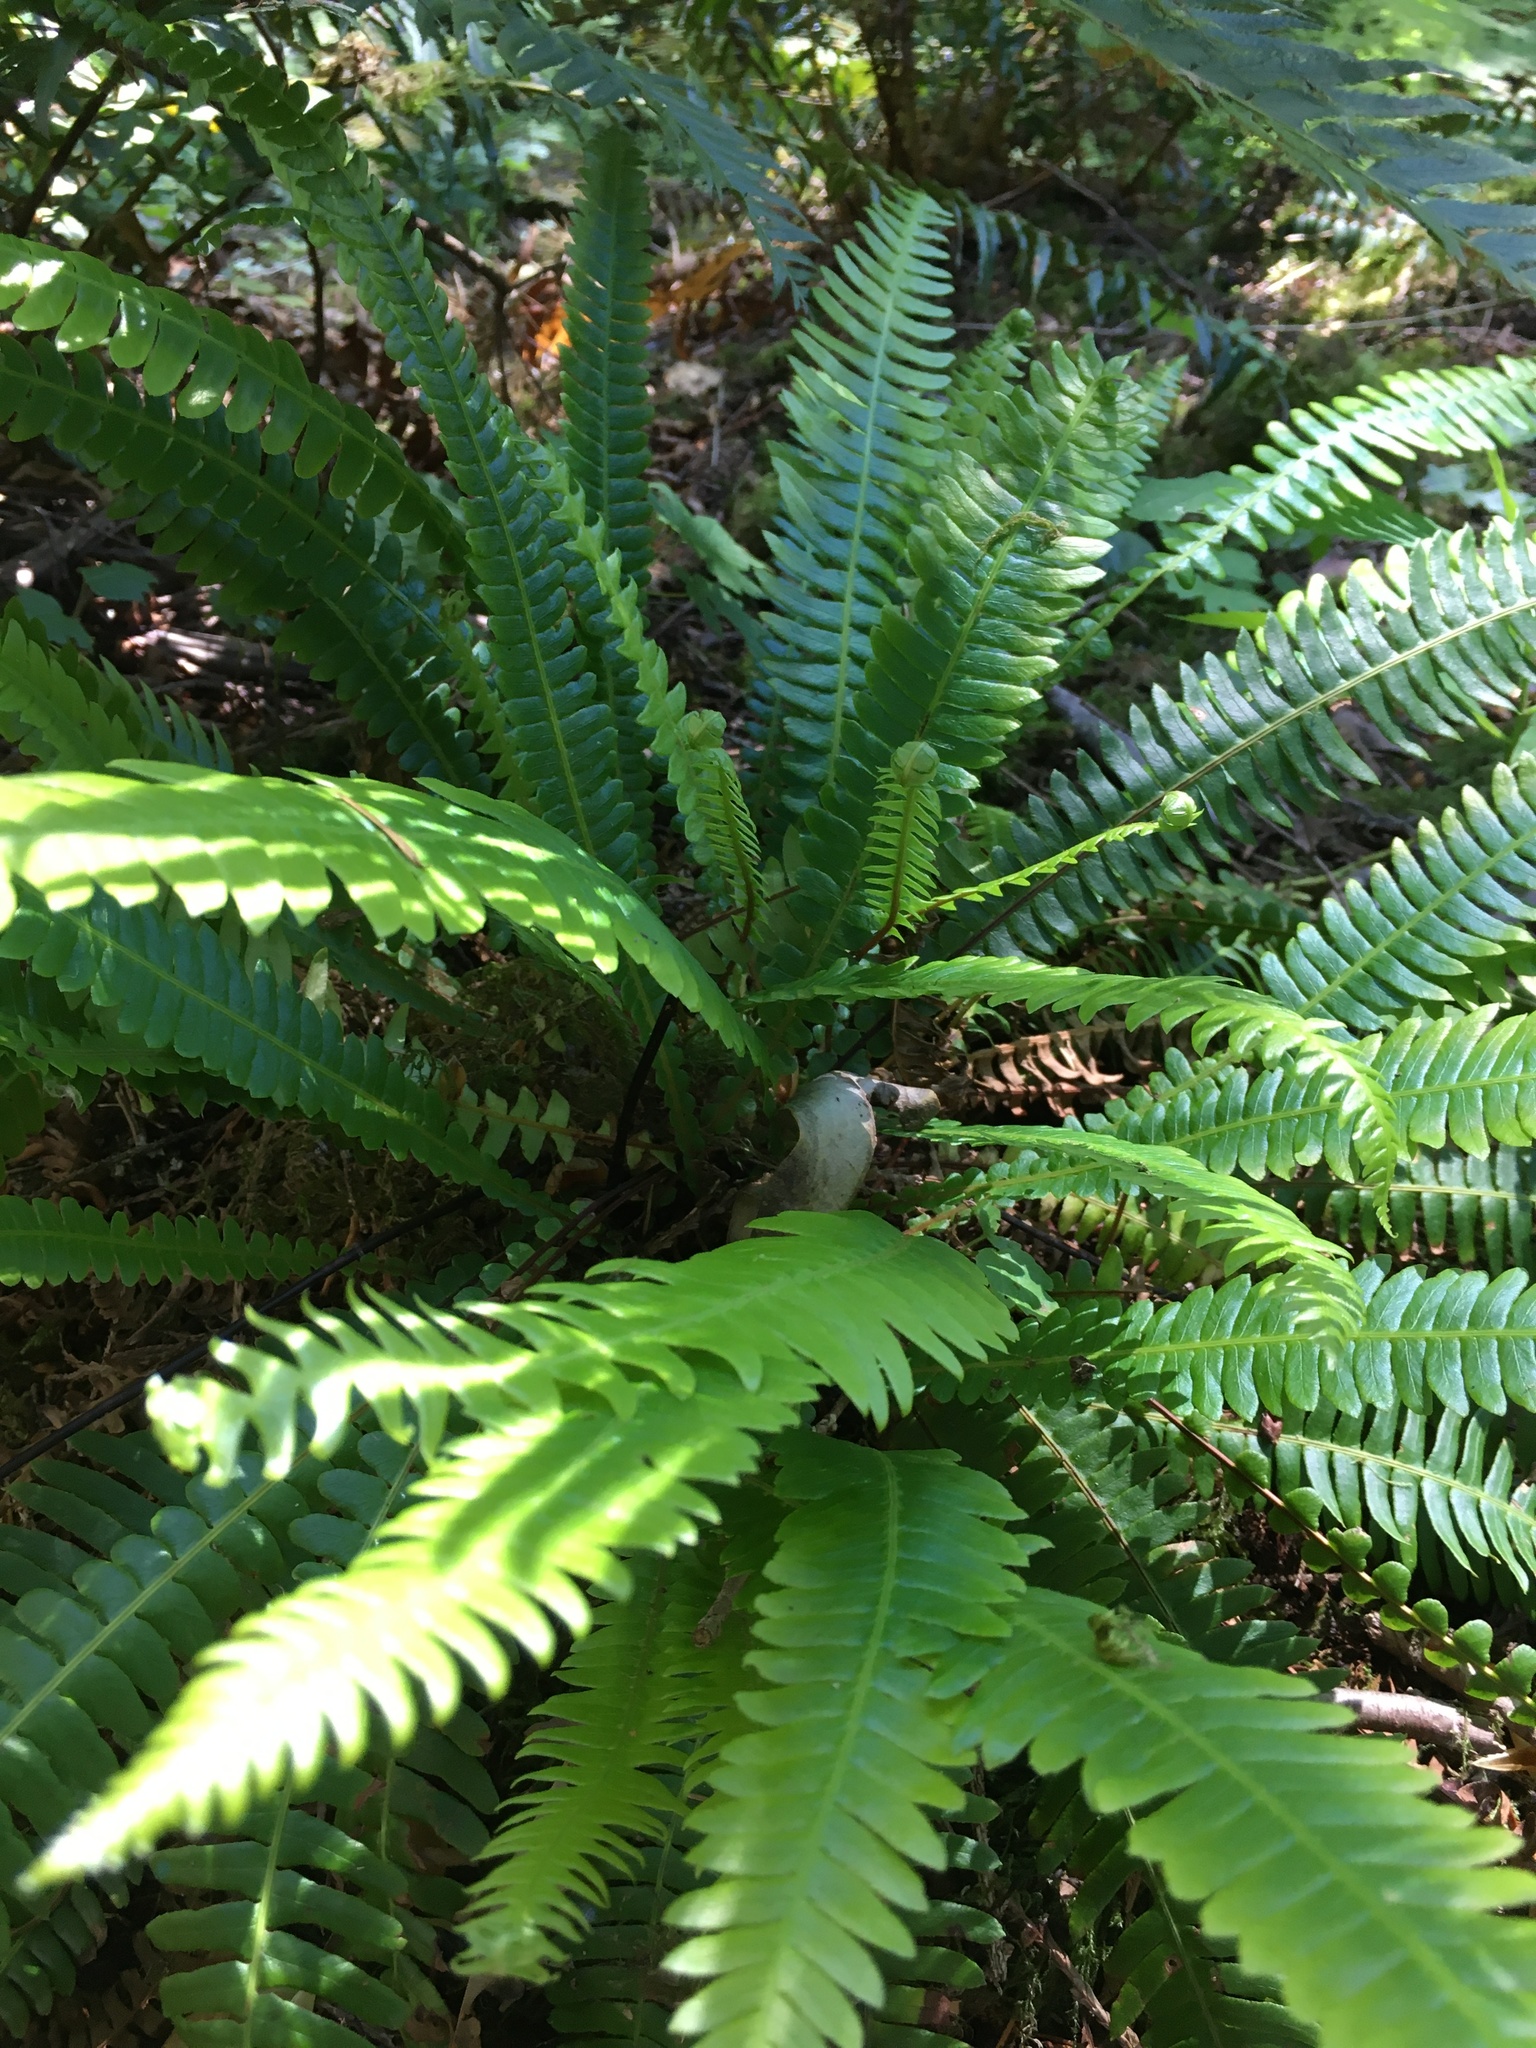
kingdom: Plantae
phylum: Tracheophyta
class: Polypodiopsida
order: Polypodiales
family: Blechnaceae
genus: Struthiopteris
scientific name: Struthiopteris spicant
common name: Deer fern
